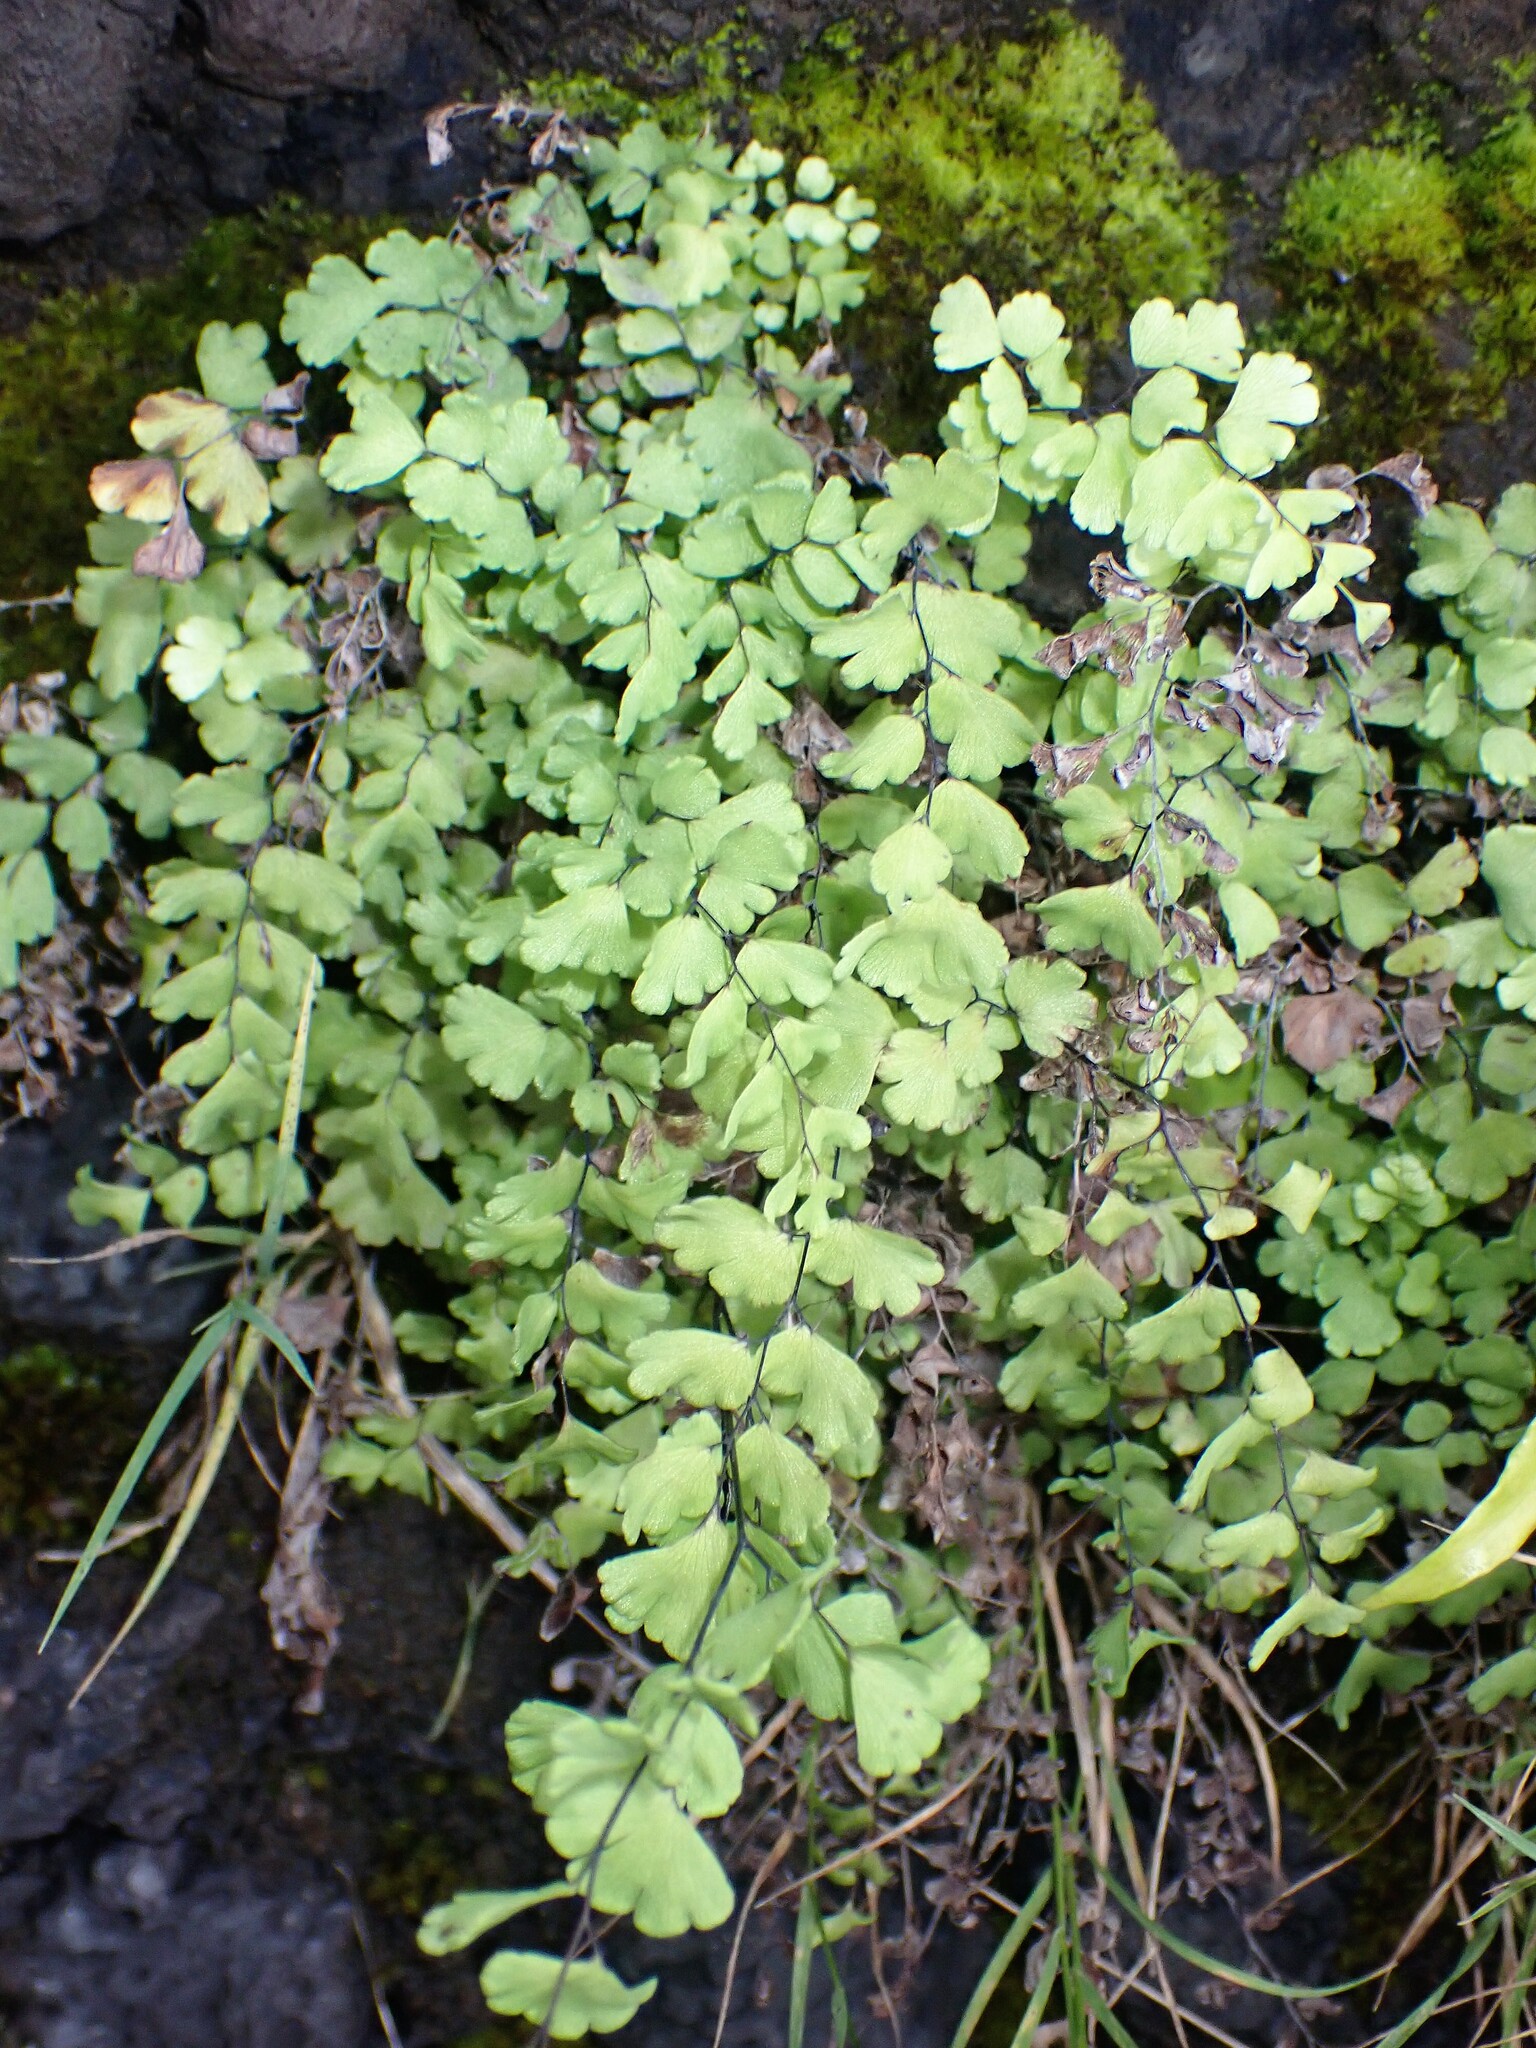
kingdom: Plantae
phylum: Tracheophyta
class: Polypodiopsida
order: Polypodiales
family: Pteridaceae
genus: Adiantum
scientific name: Adiantum capillus-veneris
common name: Maidenhair fern
